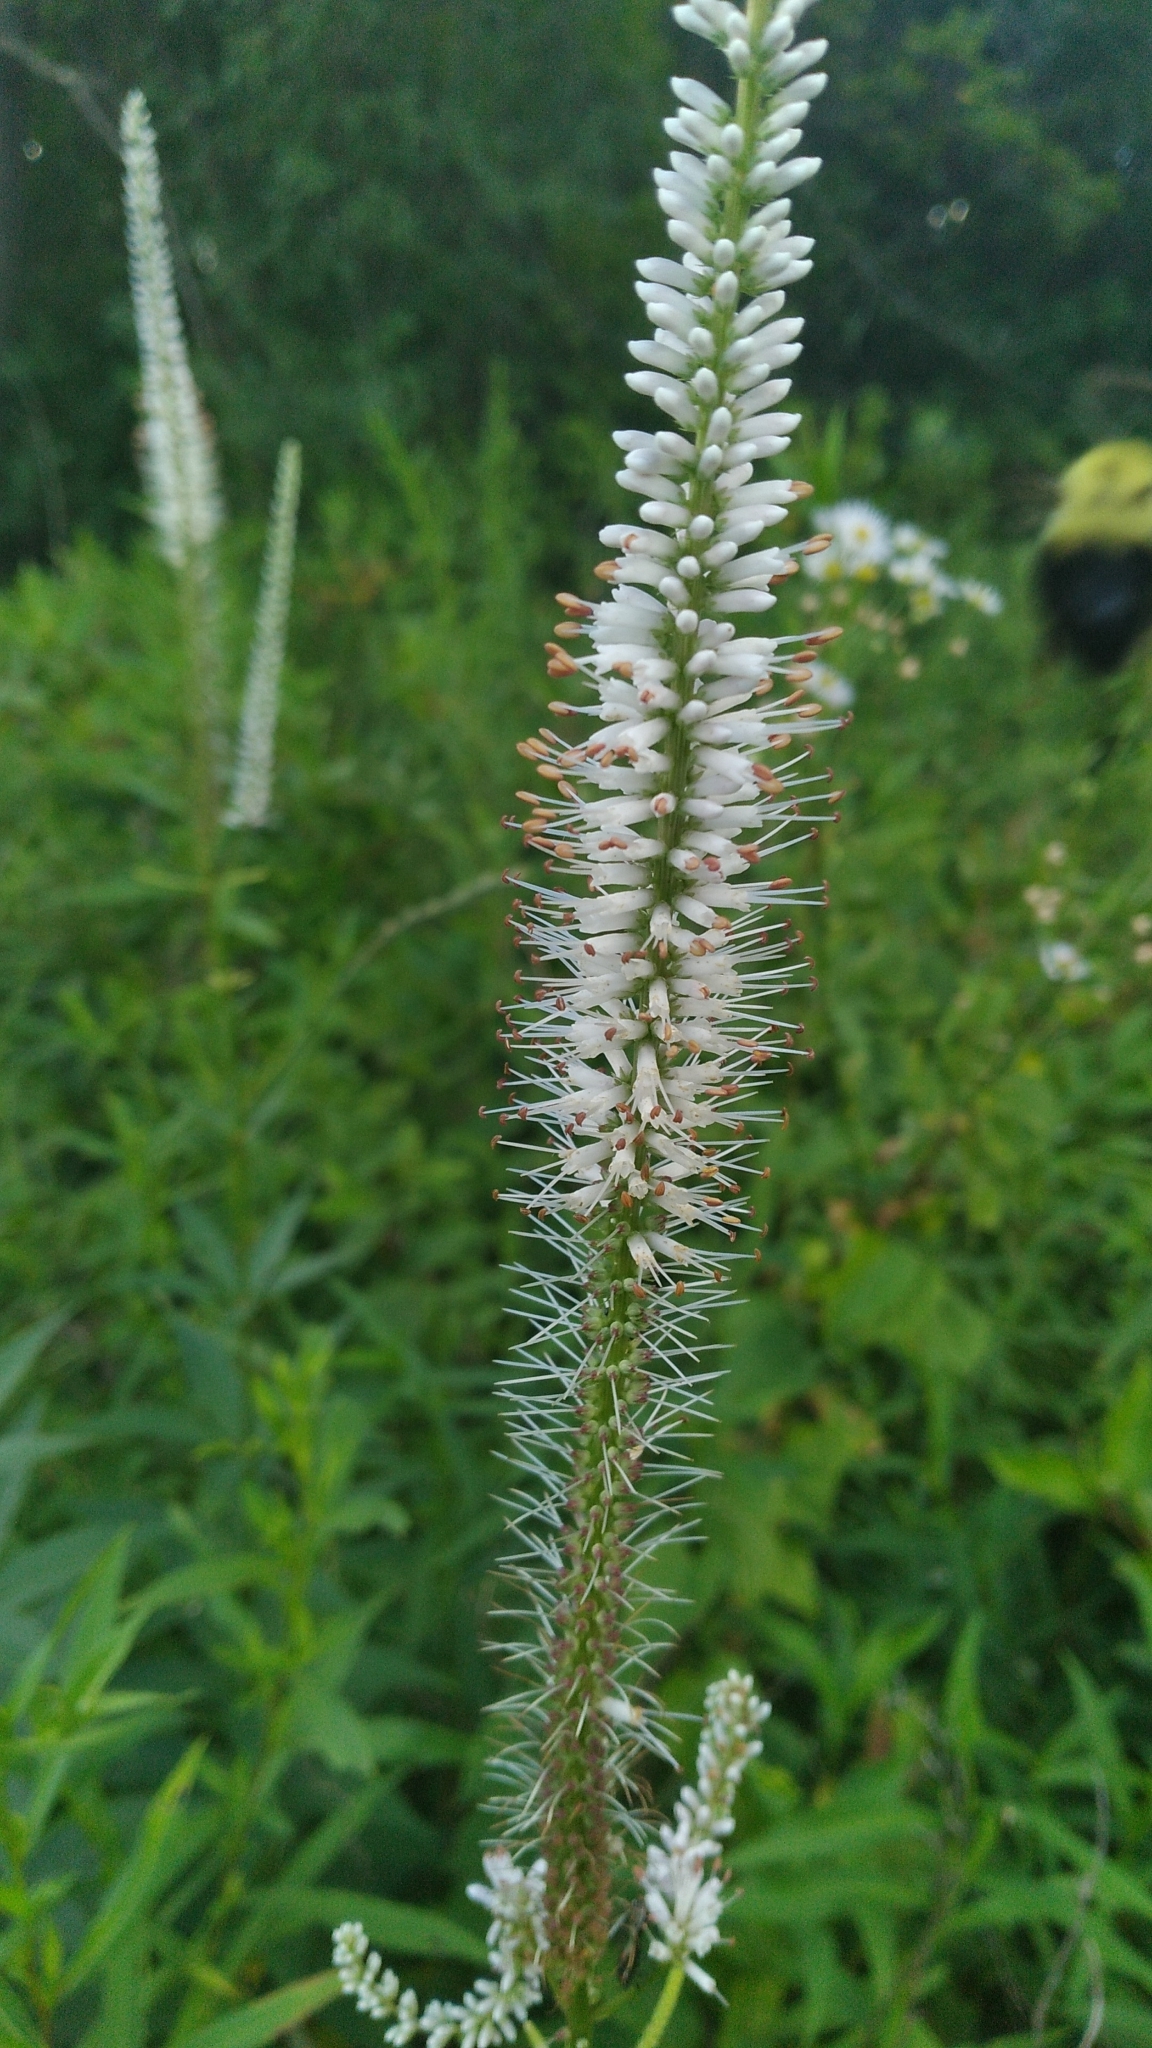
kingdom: Plantae
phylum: Tracheophyta
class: Magnoliopsida
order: Lamiales
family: Plantaginaceae
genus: Veronicastrum
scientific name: Veronicastrum virginicum
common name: Blackroot
